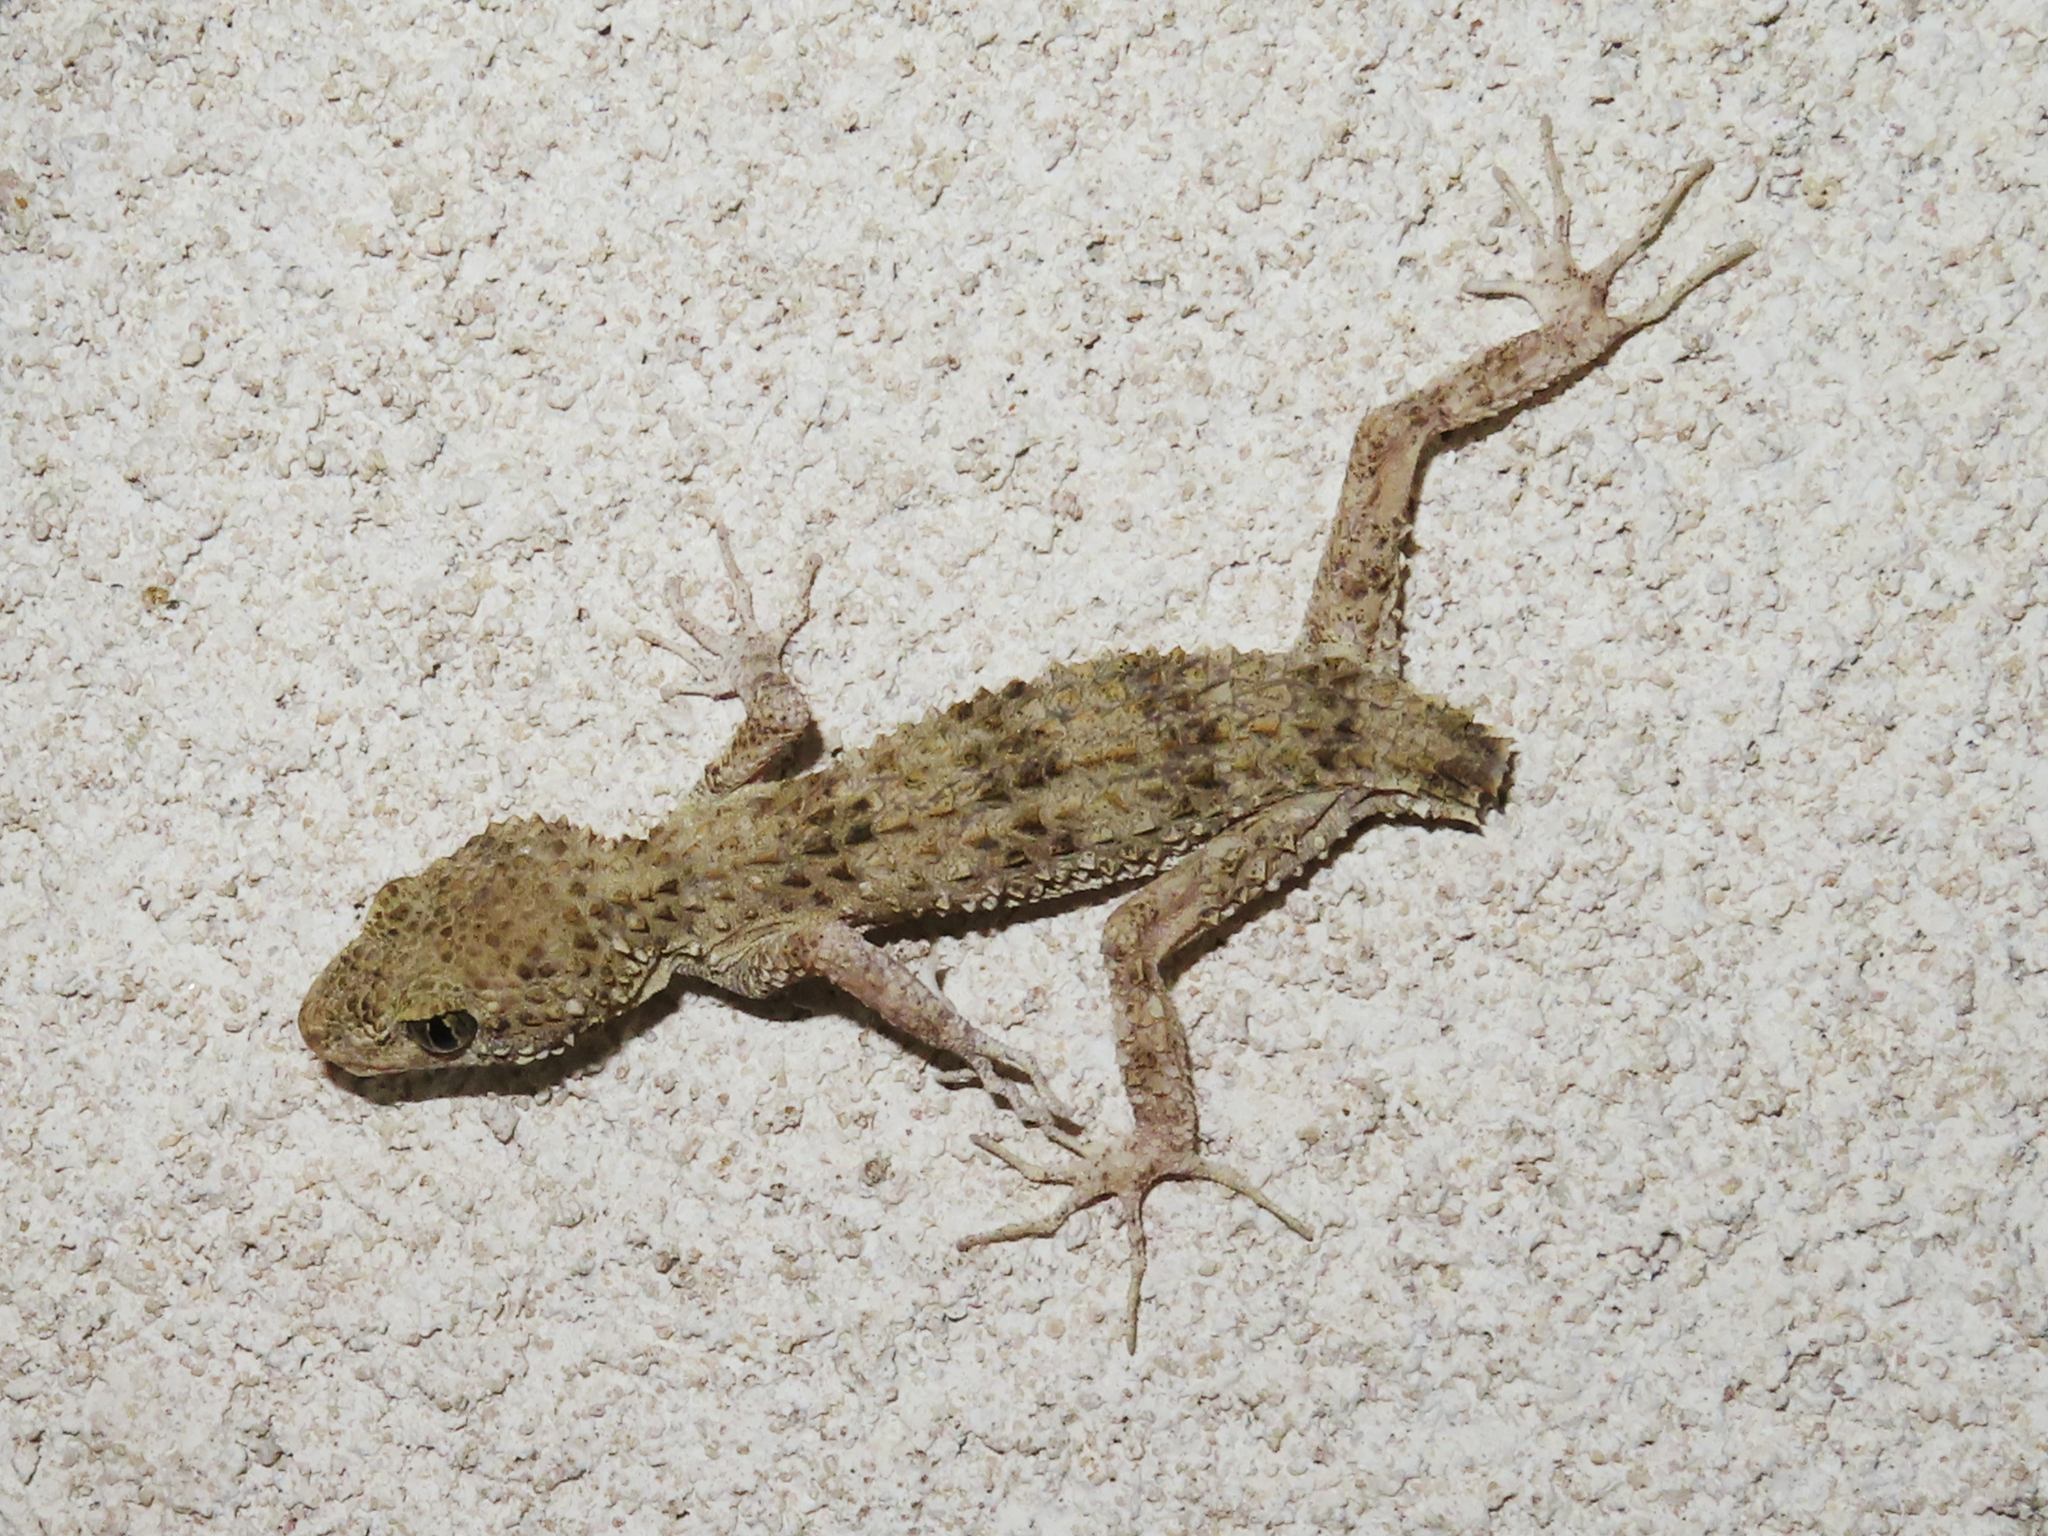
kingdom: Animalia
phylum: Chordata
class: Squamata
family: Gekkonidae
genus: Tenuidactylus
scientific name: Tenuidactylus caspius
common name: Caspian bent-toed gecko
